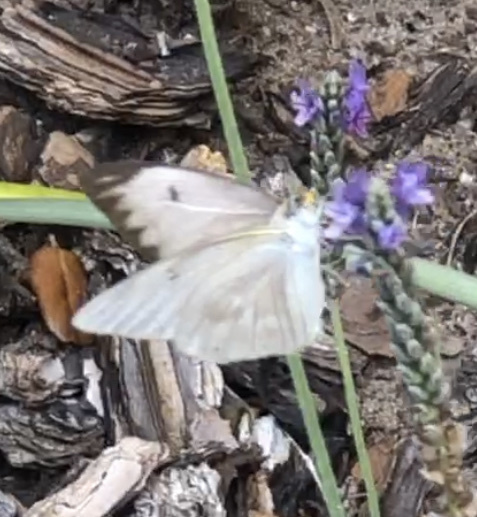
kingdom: Animalia
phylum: Arthropoda
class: Insecta
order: Lepidoptera
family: Pieridae
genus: Ascia
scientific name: Ascia monuste
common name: Great southern white
